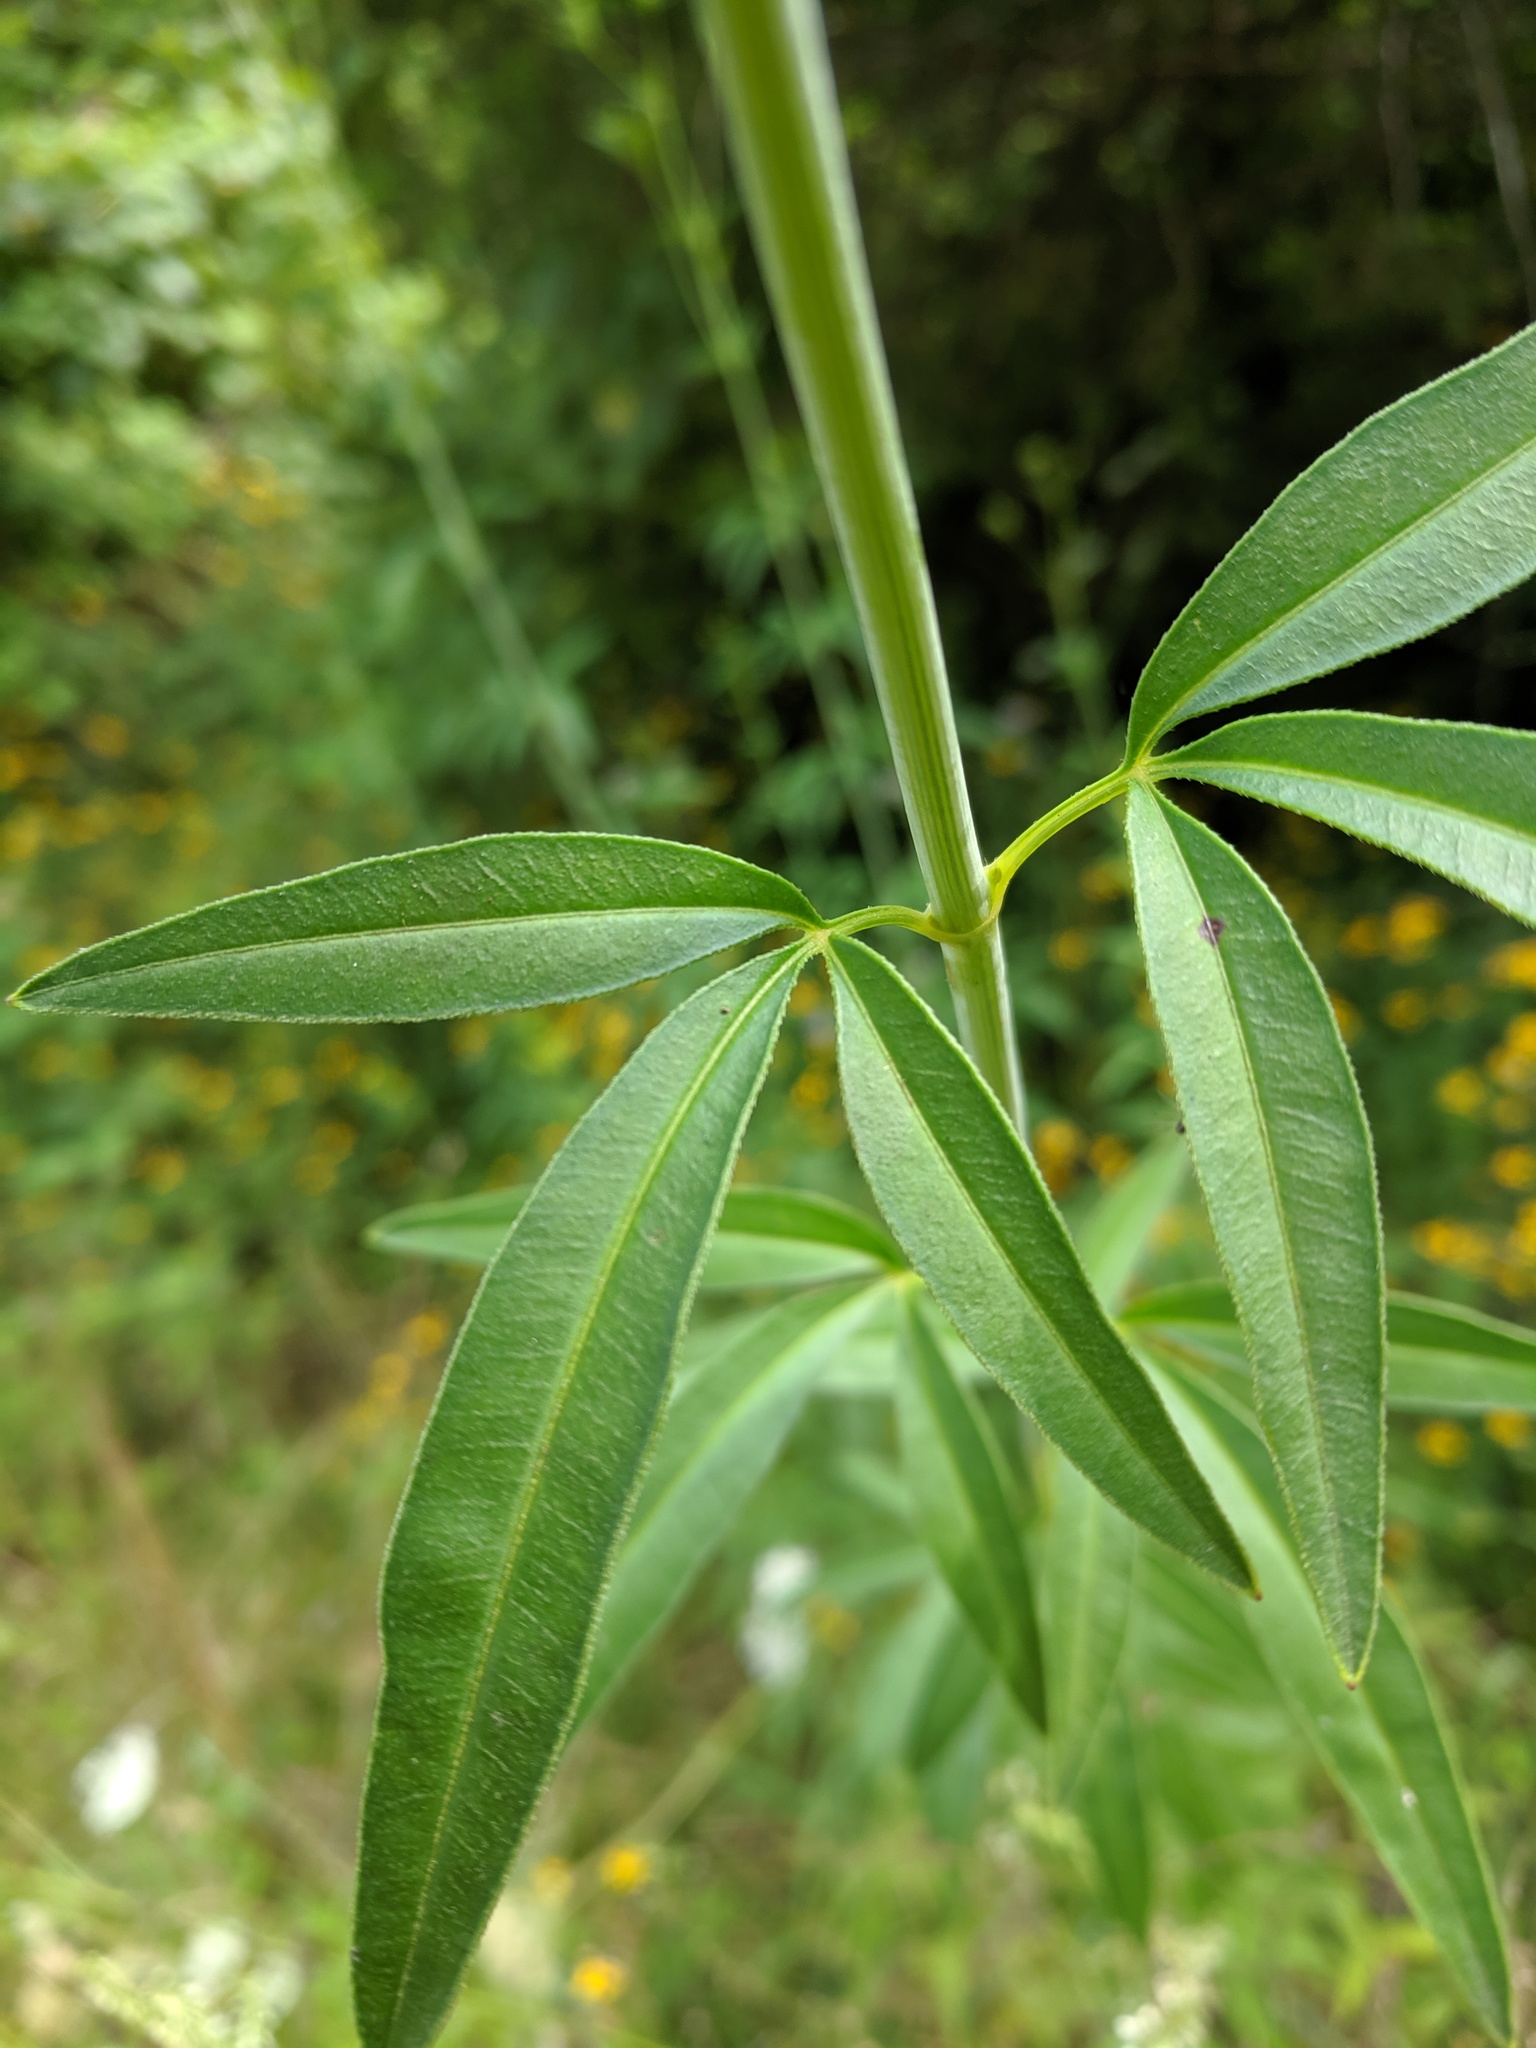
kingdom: Plantae
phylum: Tracheophyta
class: Magnoliopsida
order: Asterales
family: Asteraceae
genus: Coreopsis
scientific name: Coreopsis tripteris
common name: Tall coreopsis
